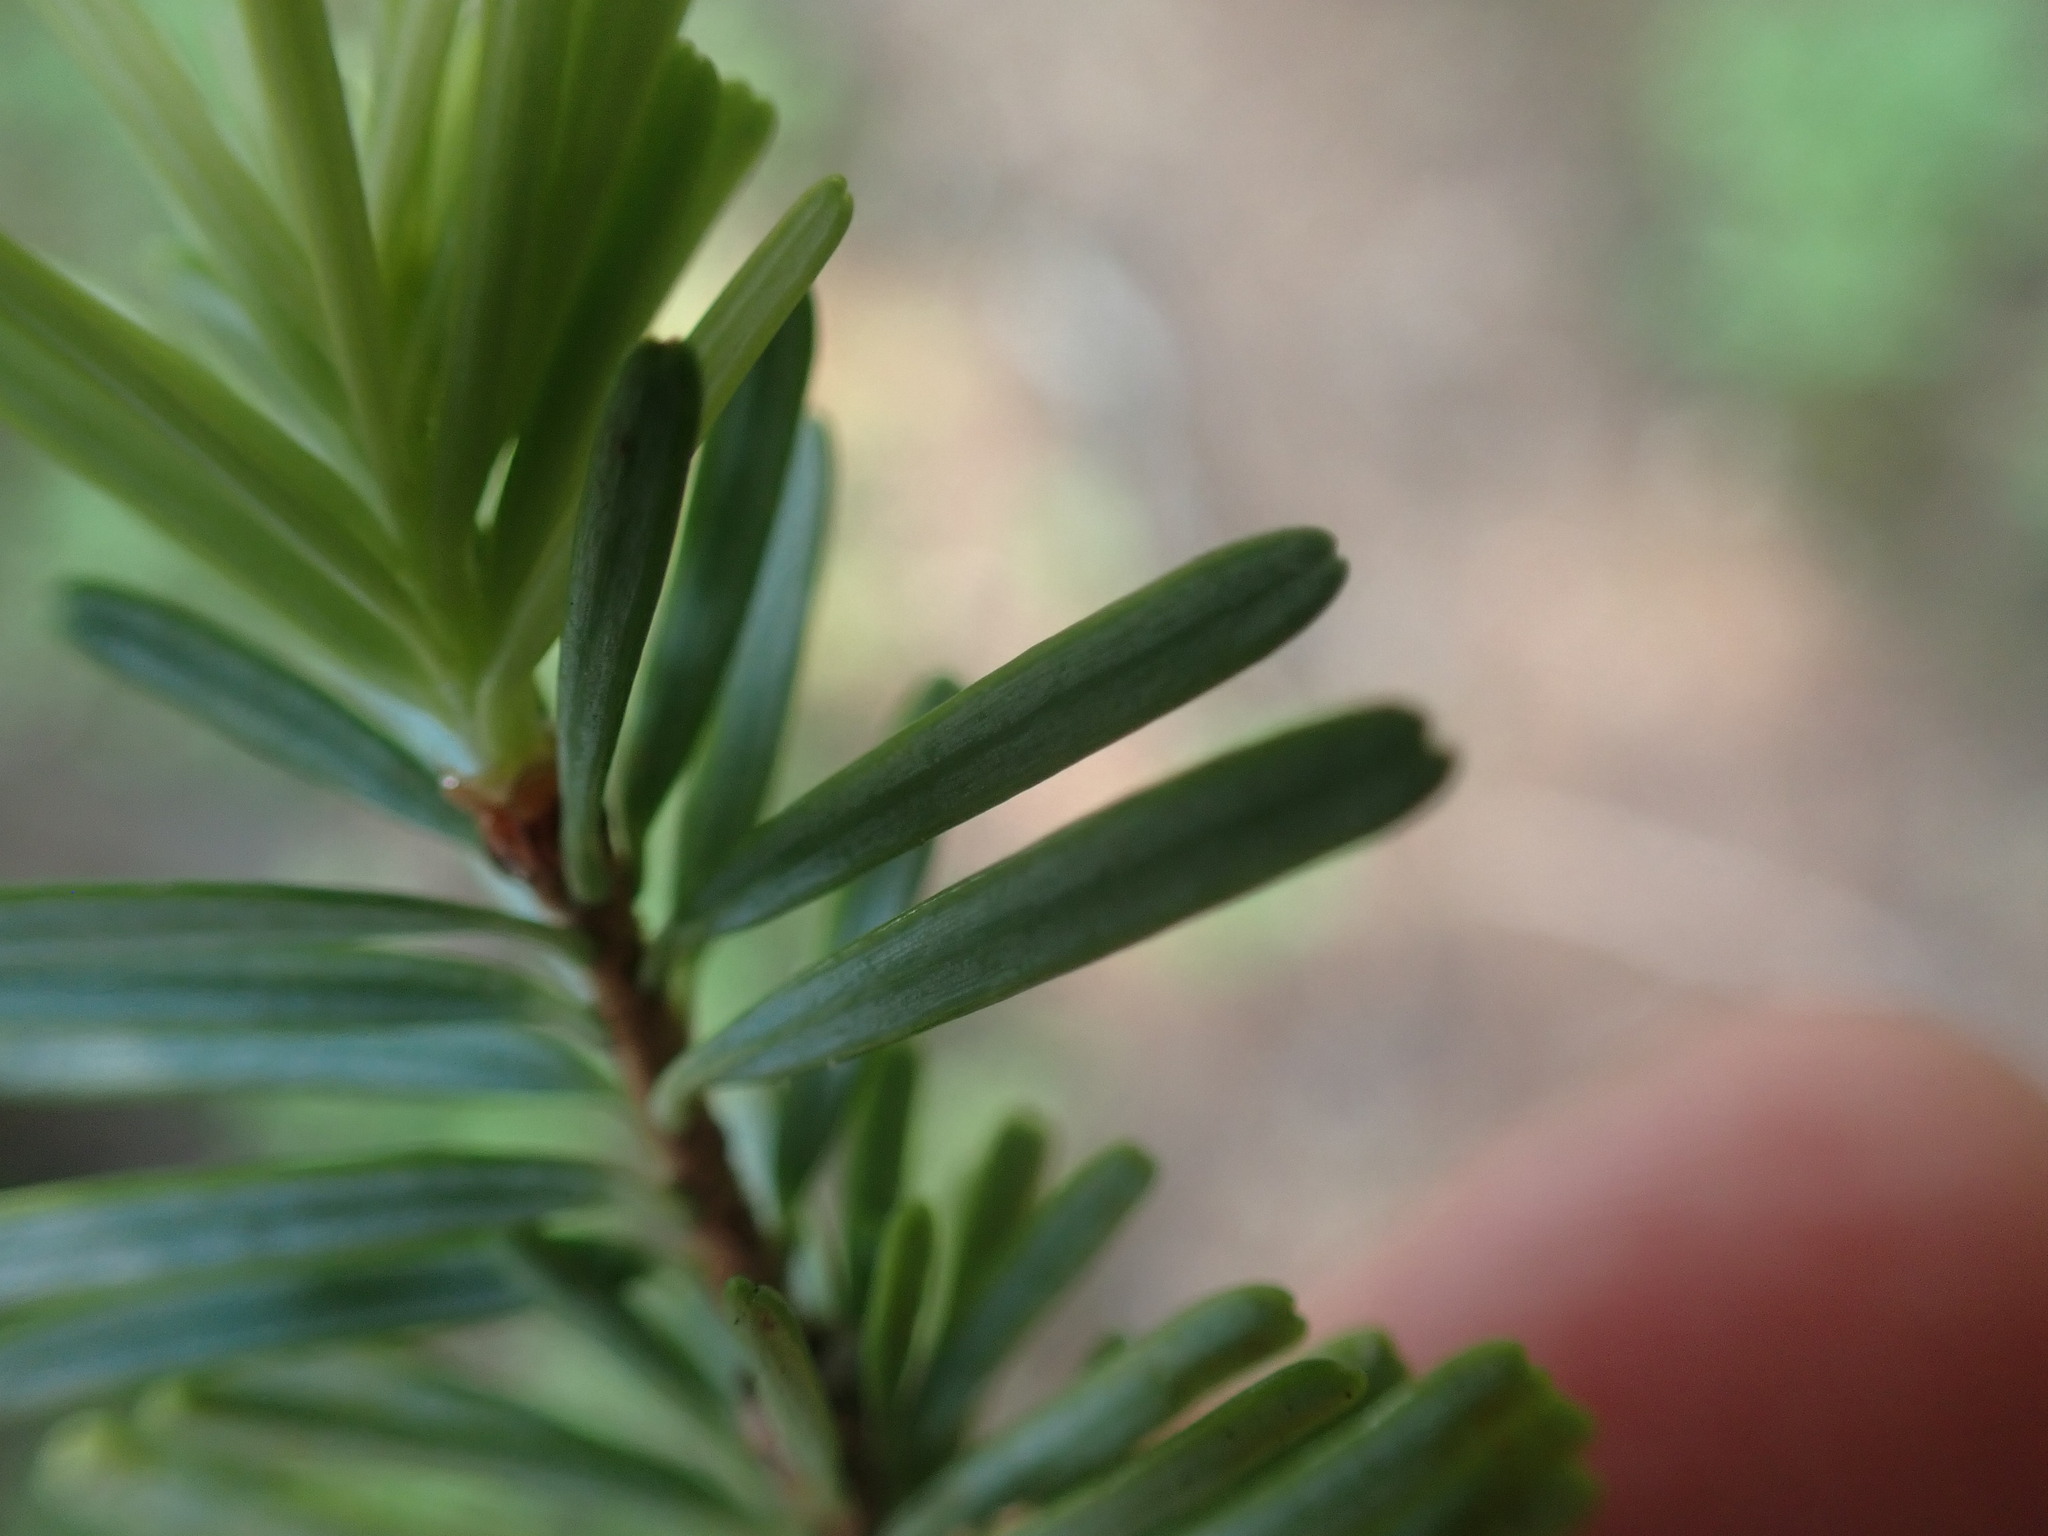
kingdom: Plantae
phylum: Tracheophyta
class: Pinopsida
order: Pinales
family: Pinaceae
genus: Abies
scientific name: Abies amabilis
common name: Pacific silver fir
